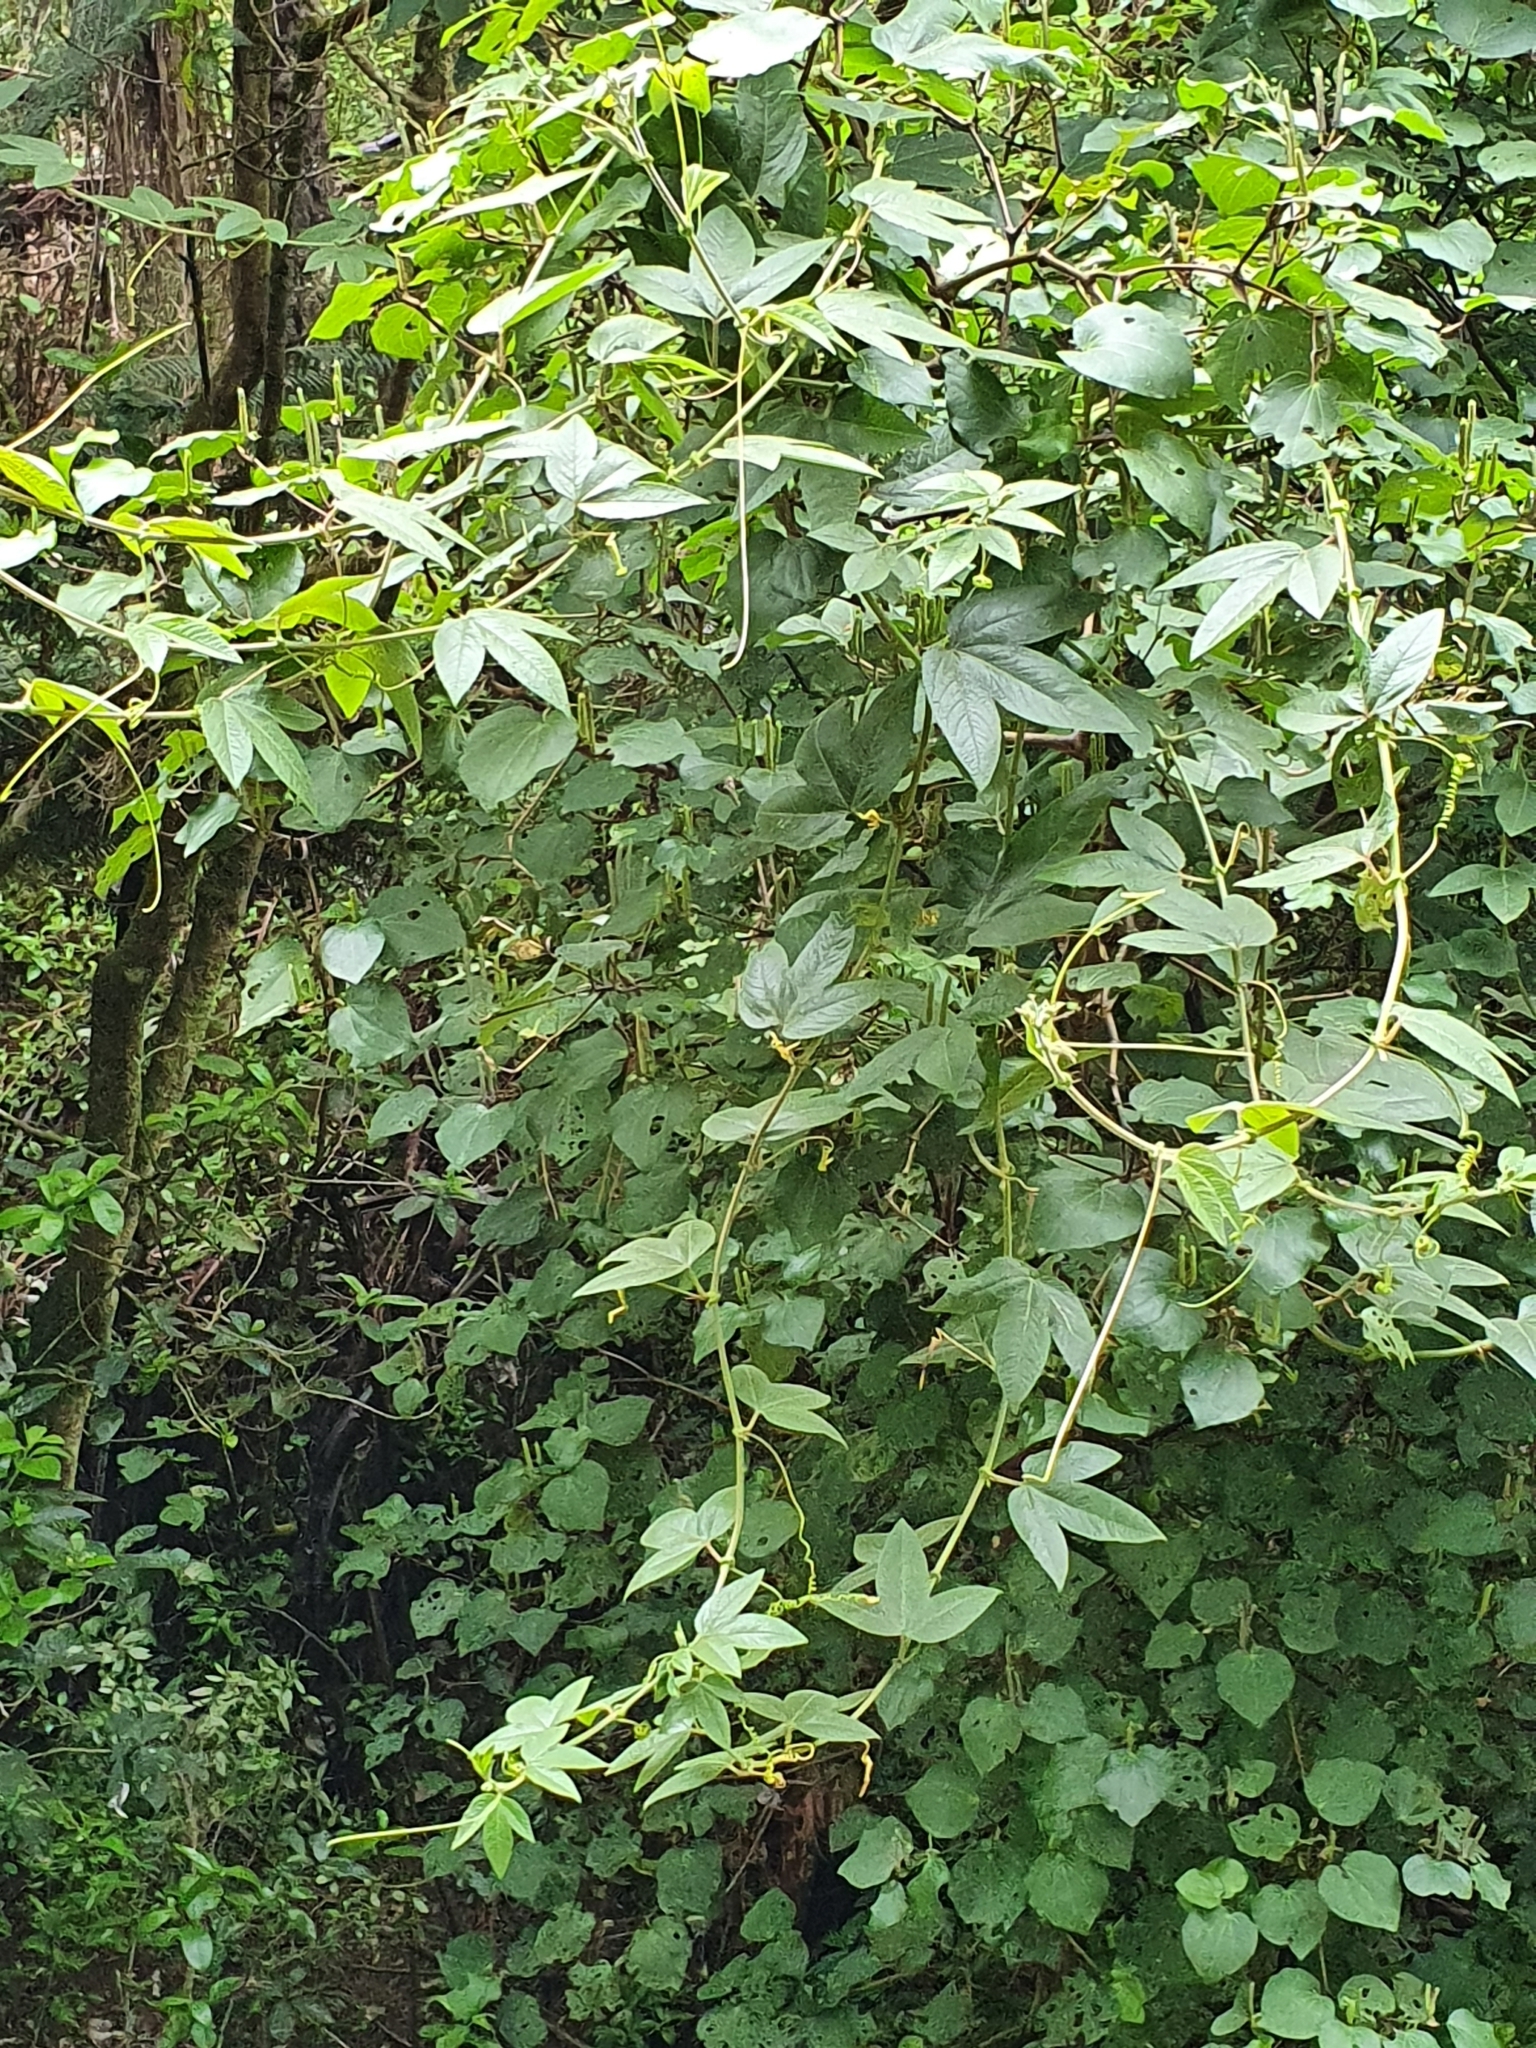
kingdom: Plantae
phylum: Tracheophyta
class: Magnoliopsida
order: Malpighiales
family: Passifloraceae
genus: Passiflora
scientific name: Passiflora tripartita
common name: Banana poka
